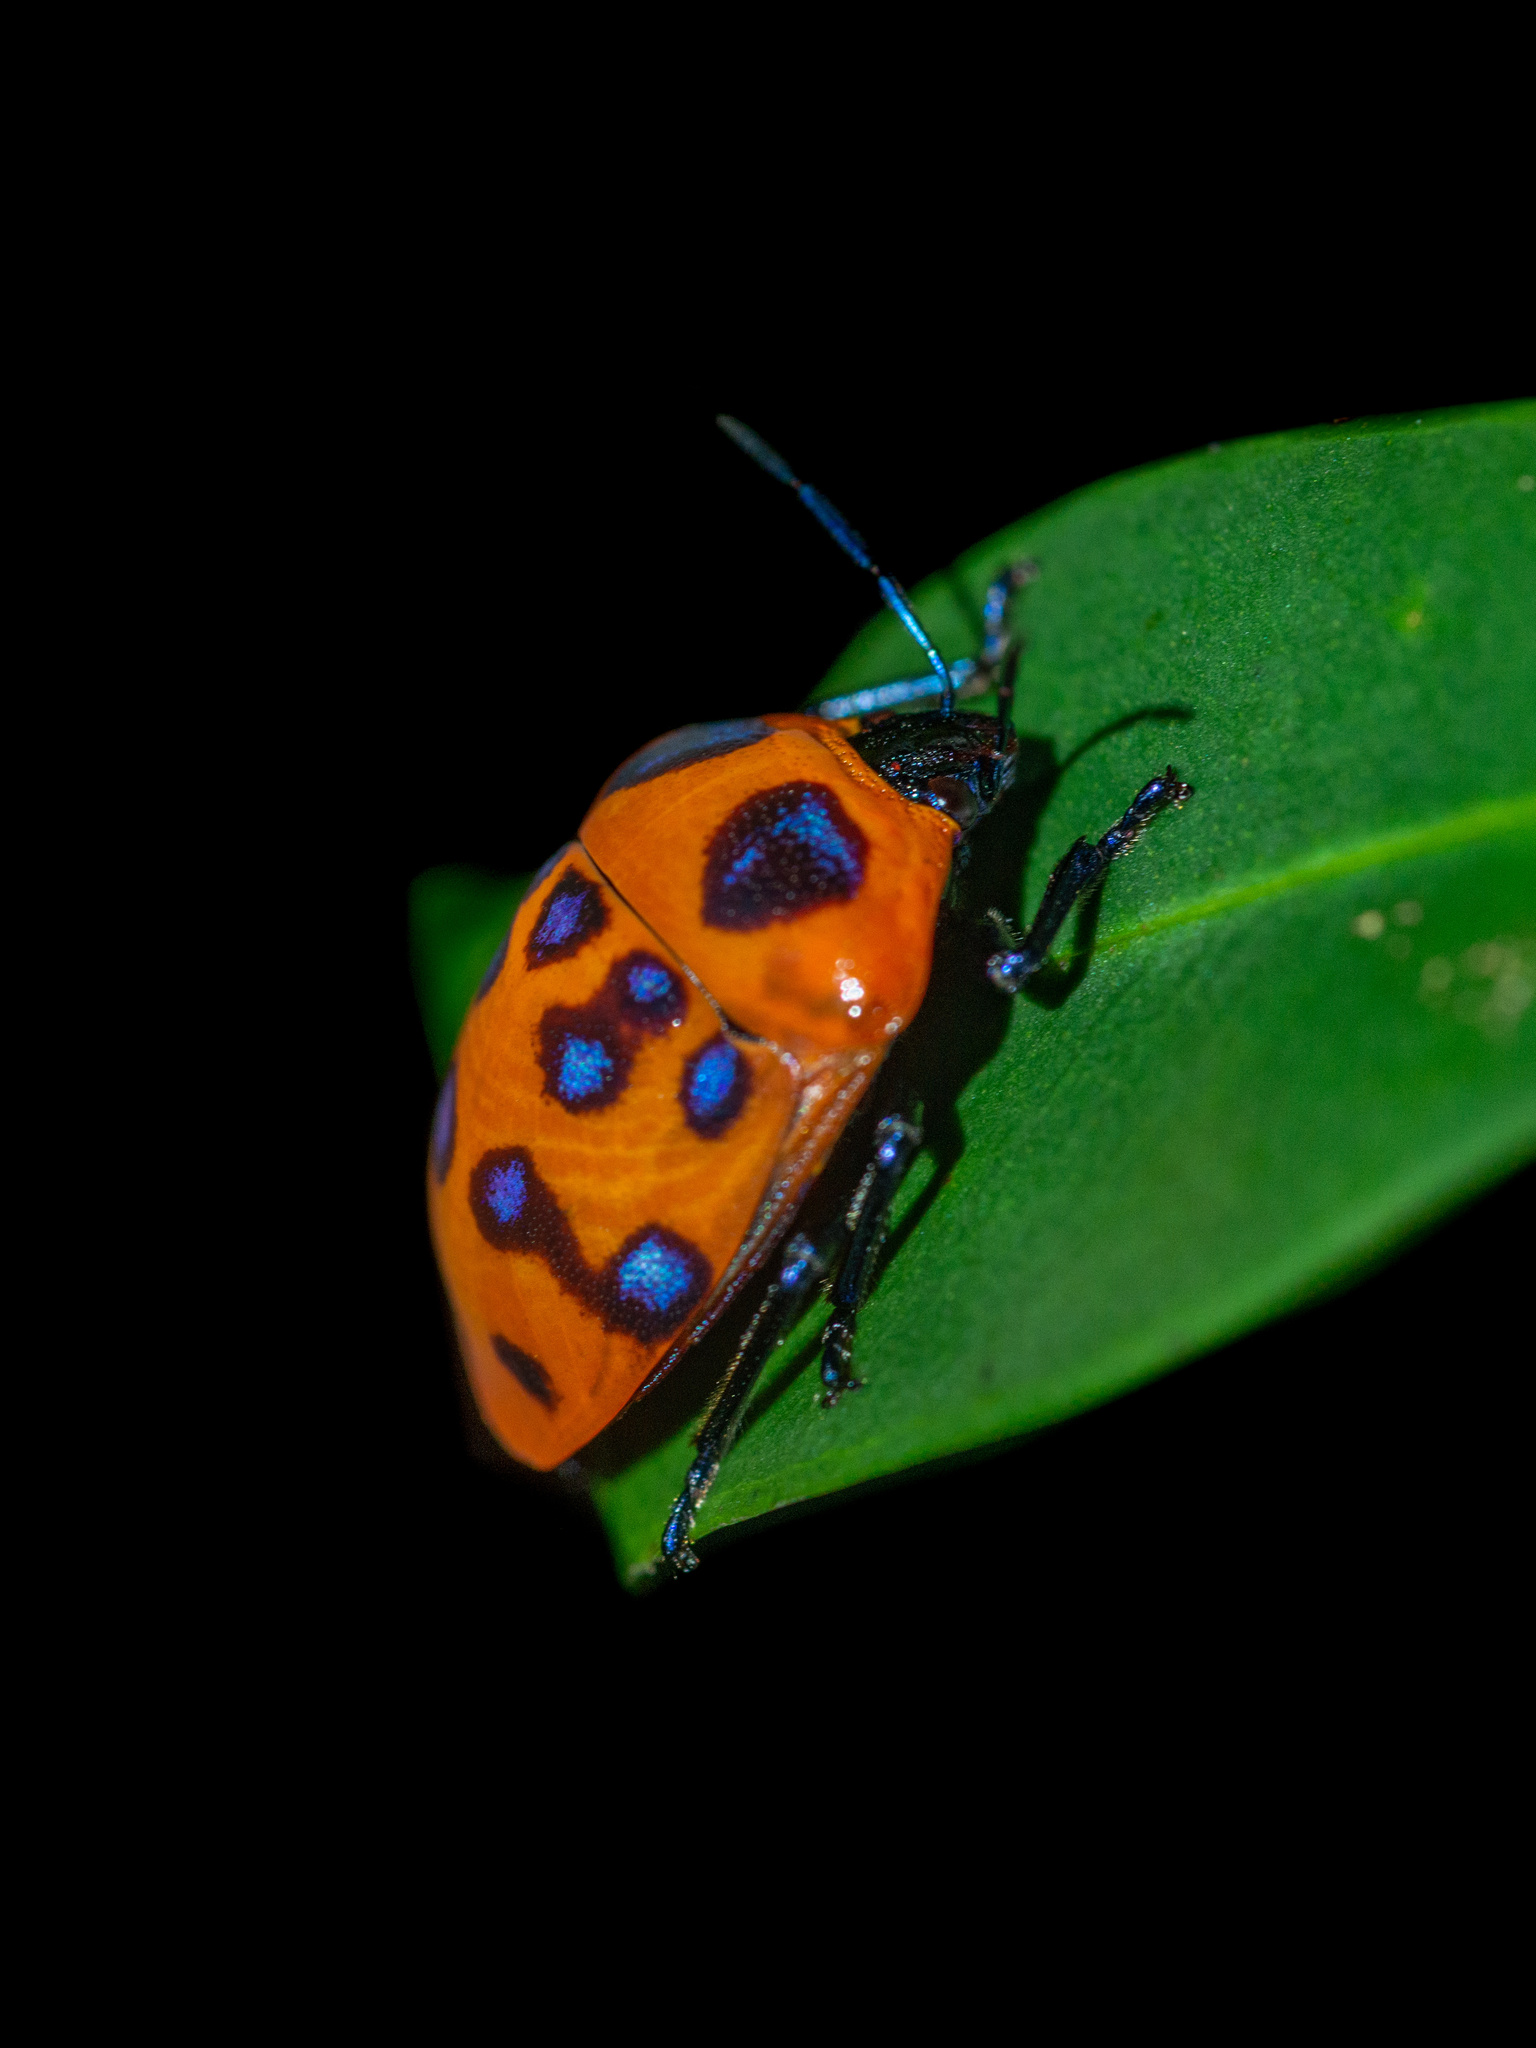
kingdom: Animalia
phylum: Arthropoda
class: Insecta
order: Hemiptera
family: Scutelleridae
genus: Poecilocoris
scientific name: Poecilocoris druraei
